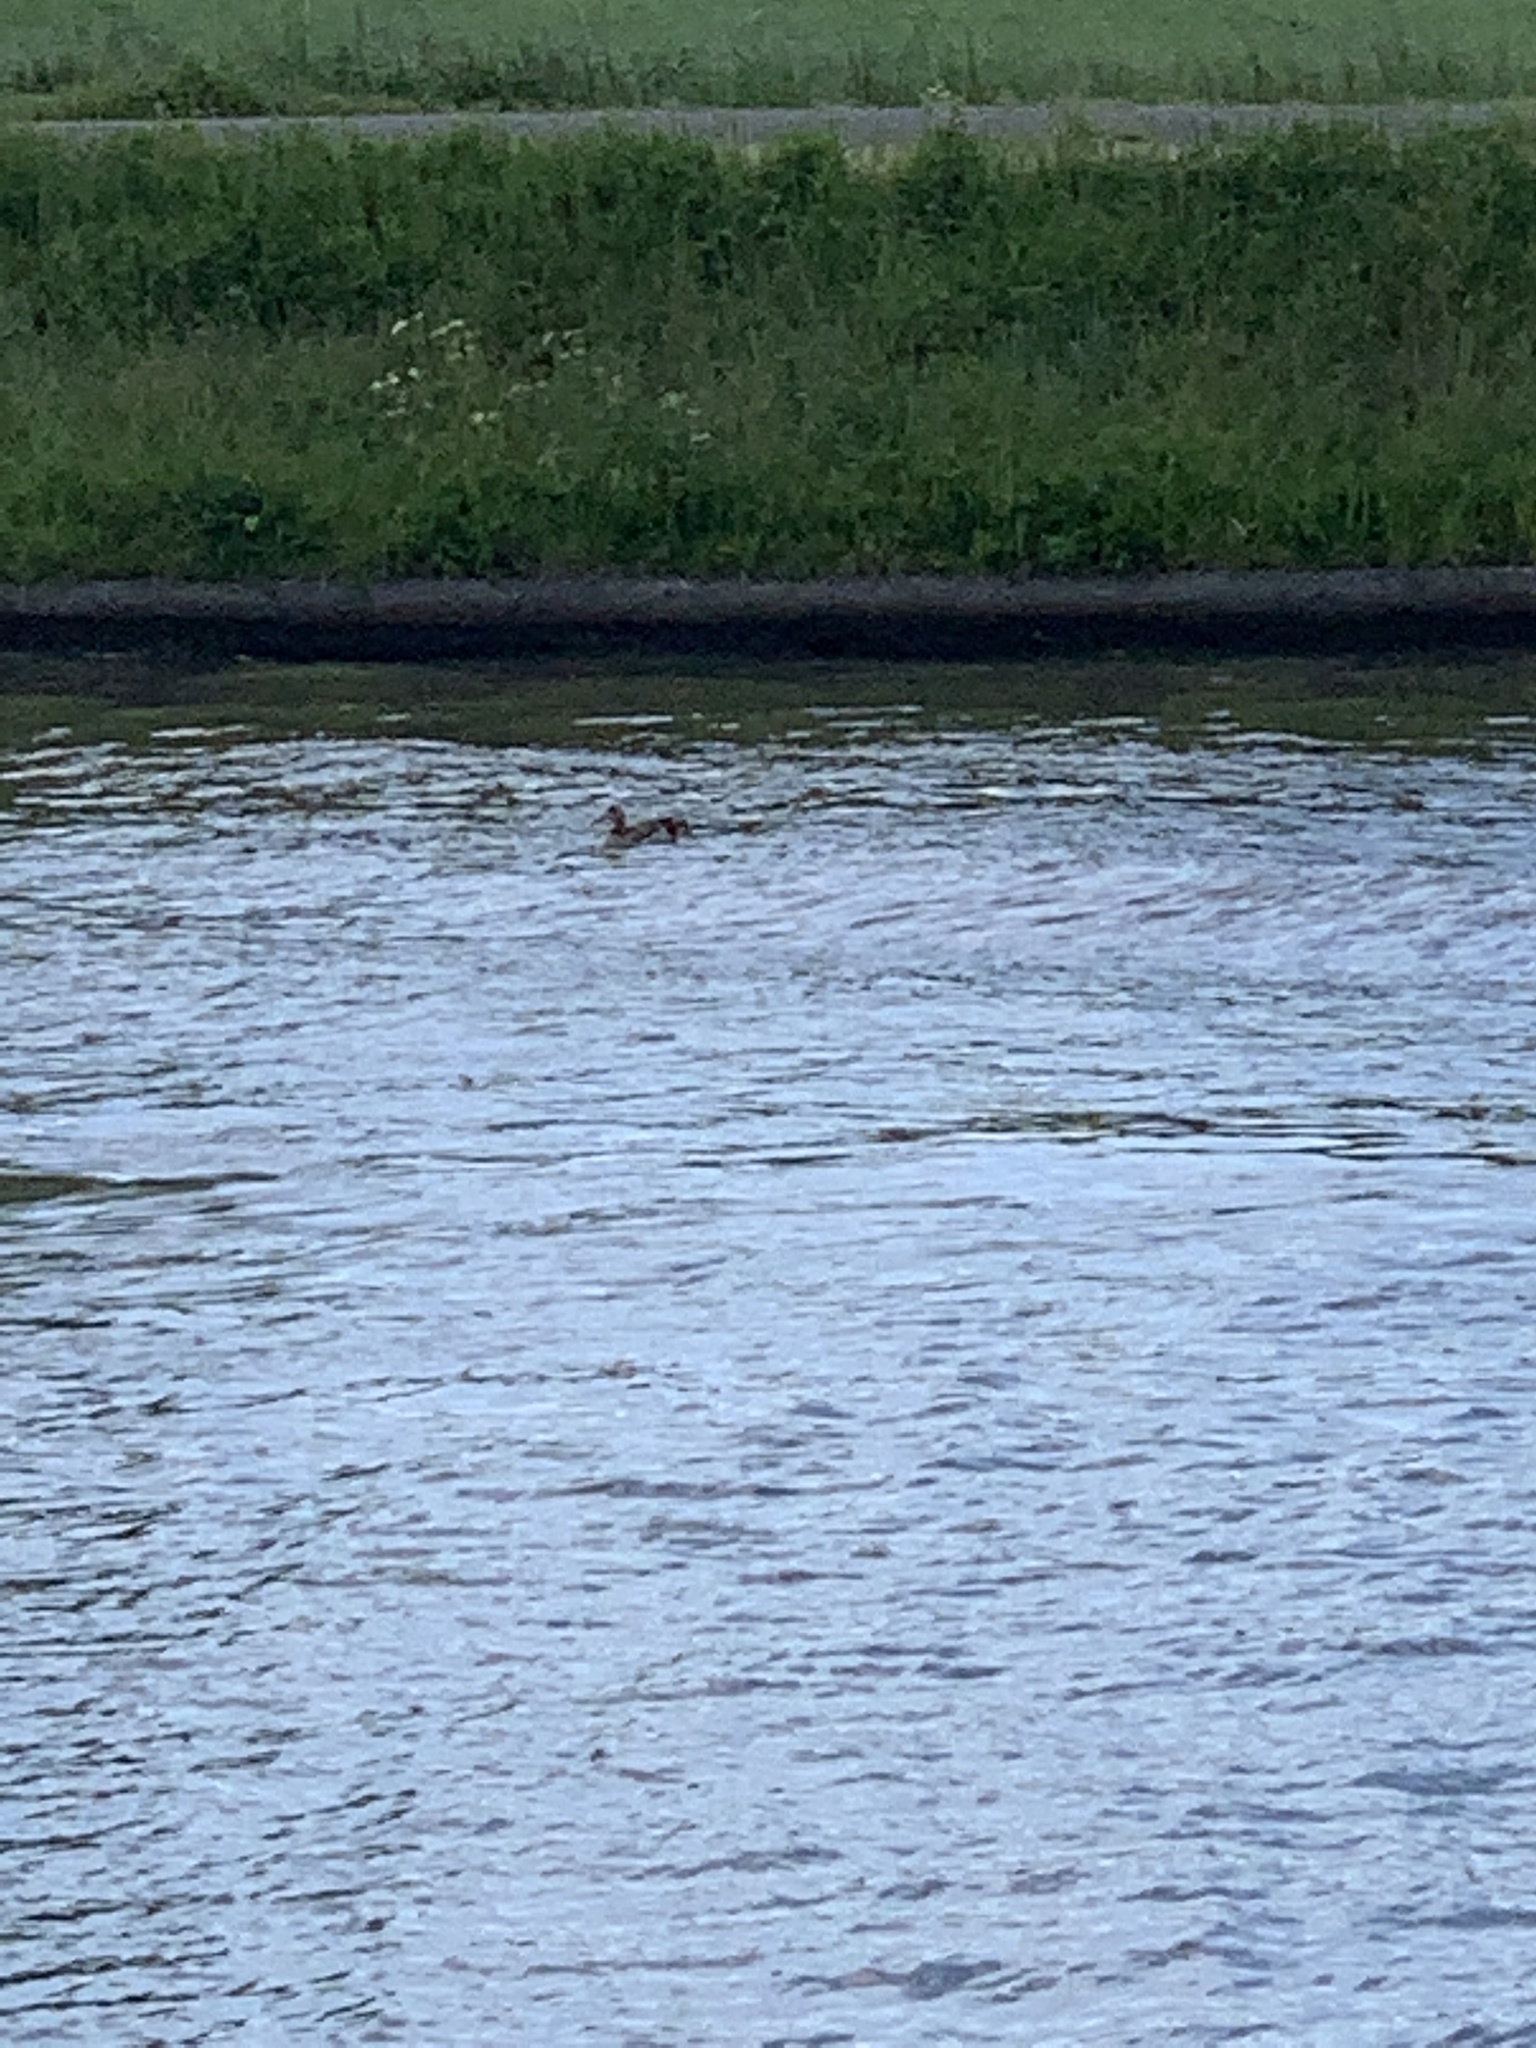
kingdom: Animalia
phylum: Chordata
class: Aves
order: Anseriformes
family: Anatidae
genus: Alopochen
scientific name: Alopochen aegyptiaca
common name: Egyptian goose
